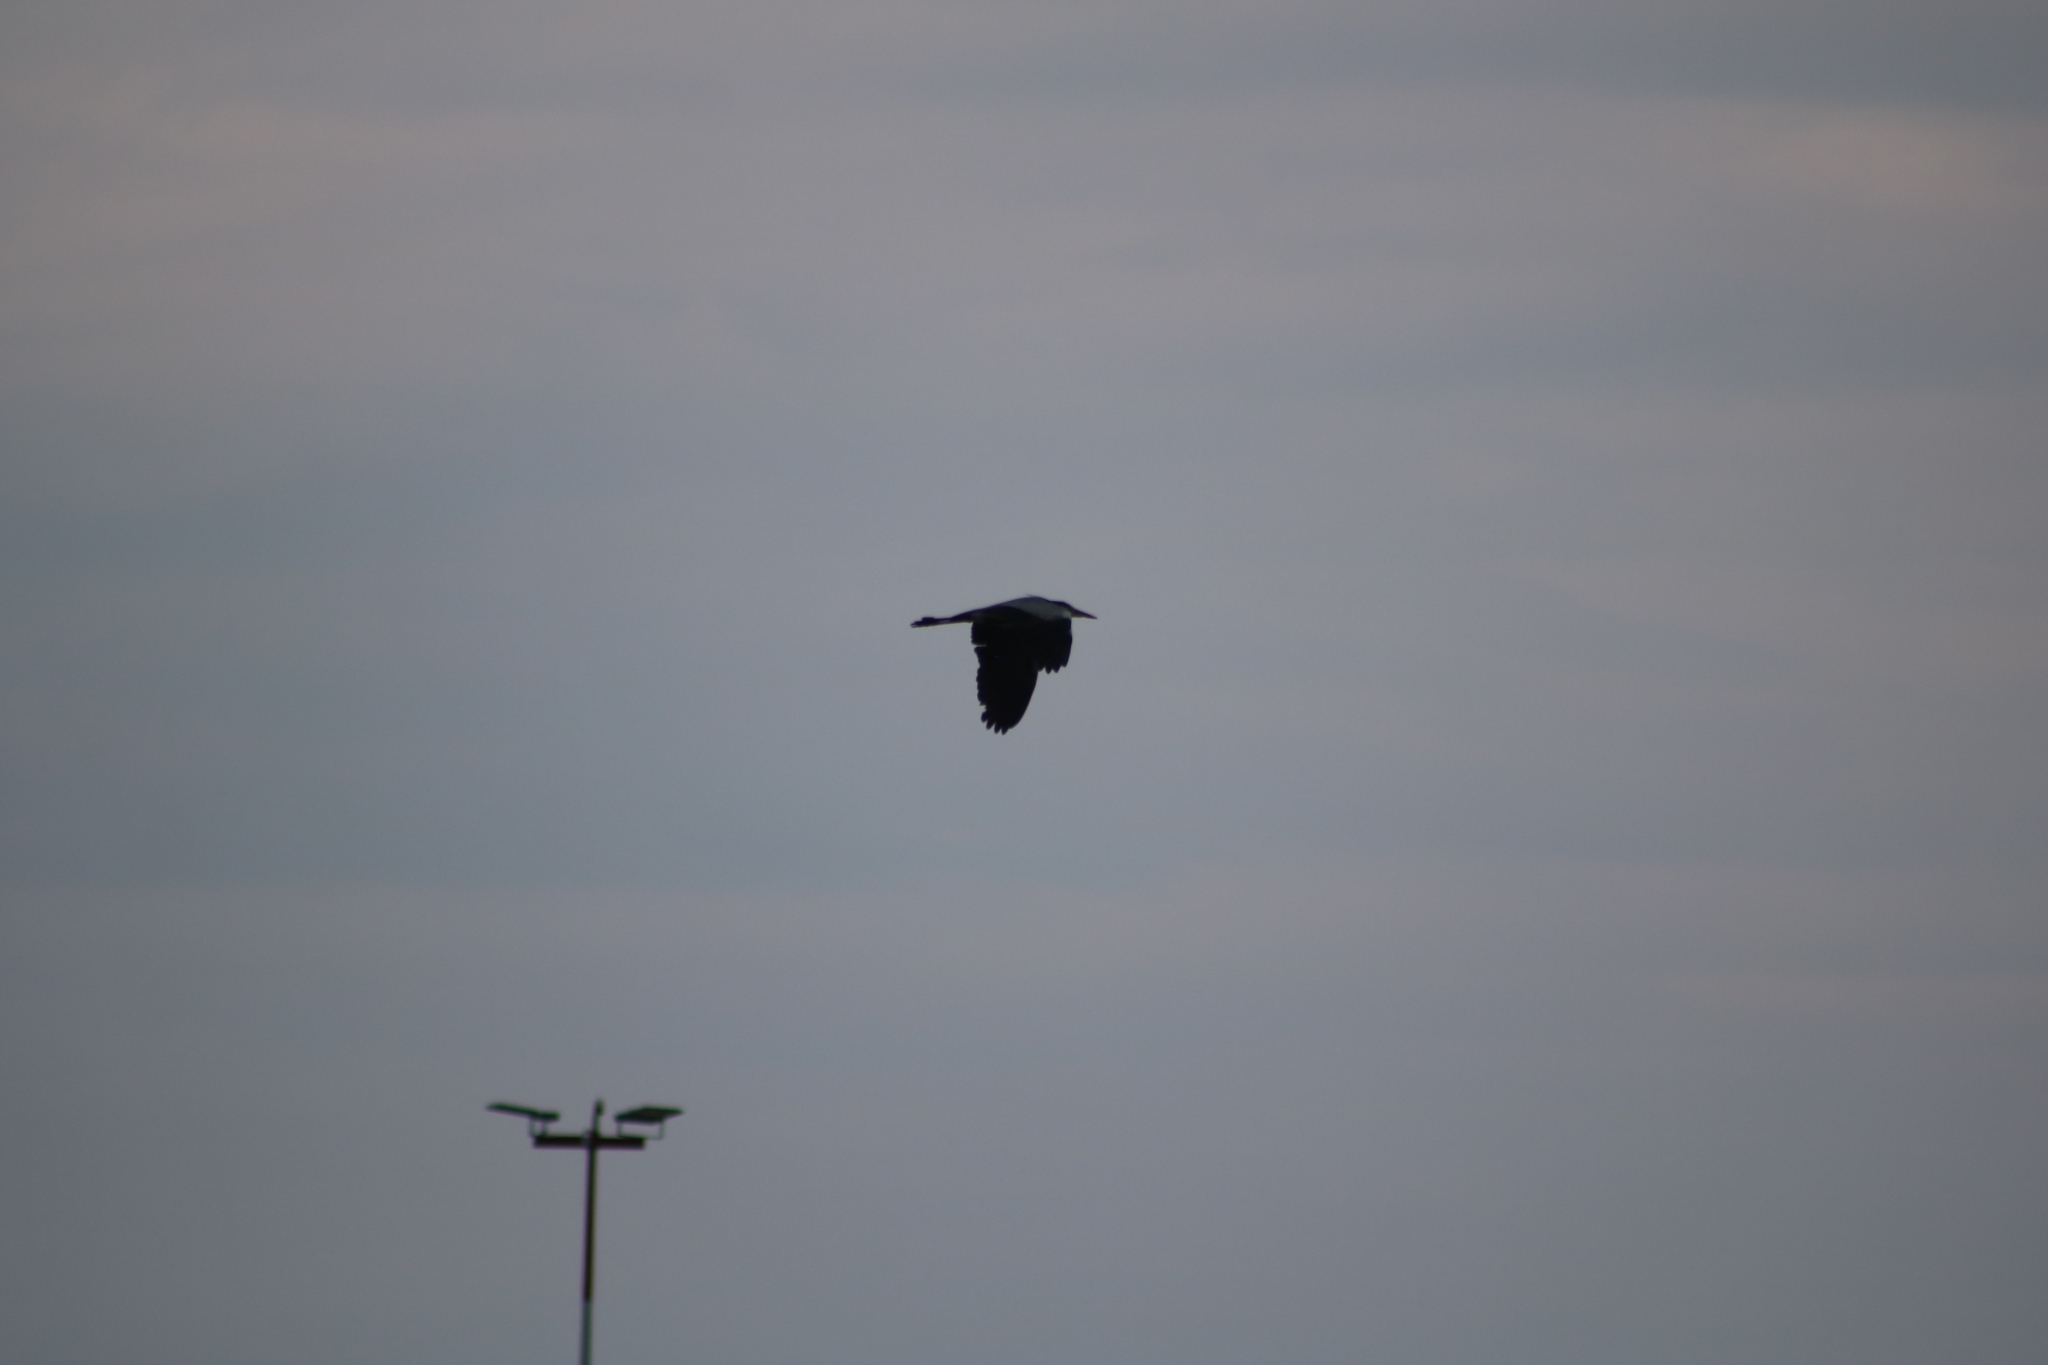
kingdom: Animalia
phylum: Chordata
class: Aves
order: Pelecaniformes
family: Ardeidae
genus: Ardea
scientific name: Ardea cinerea
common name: Grey heron
